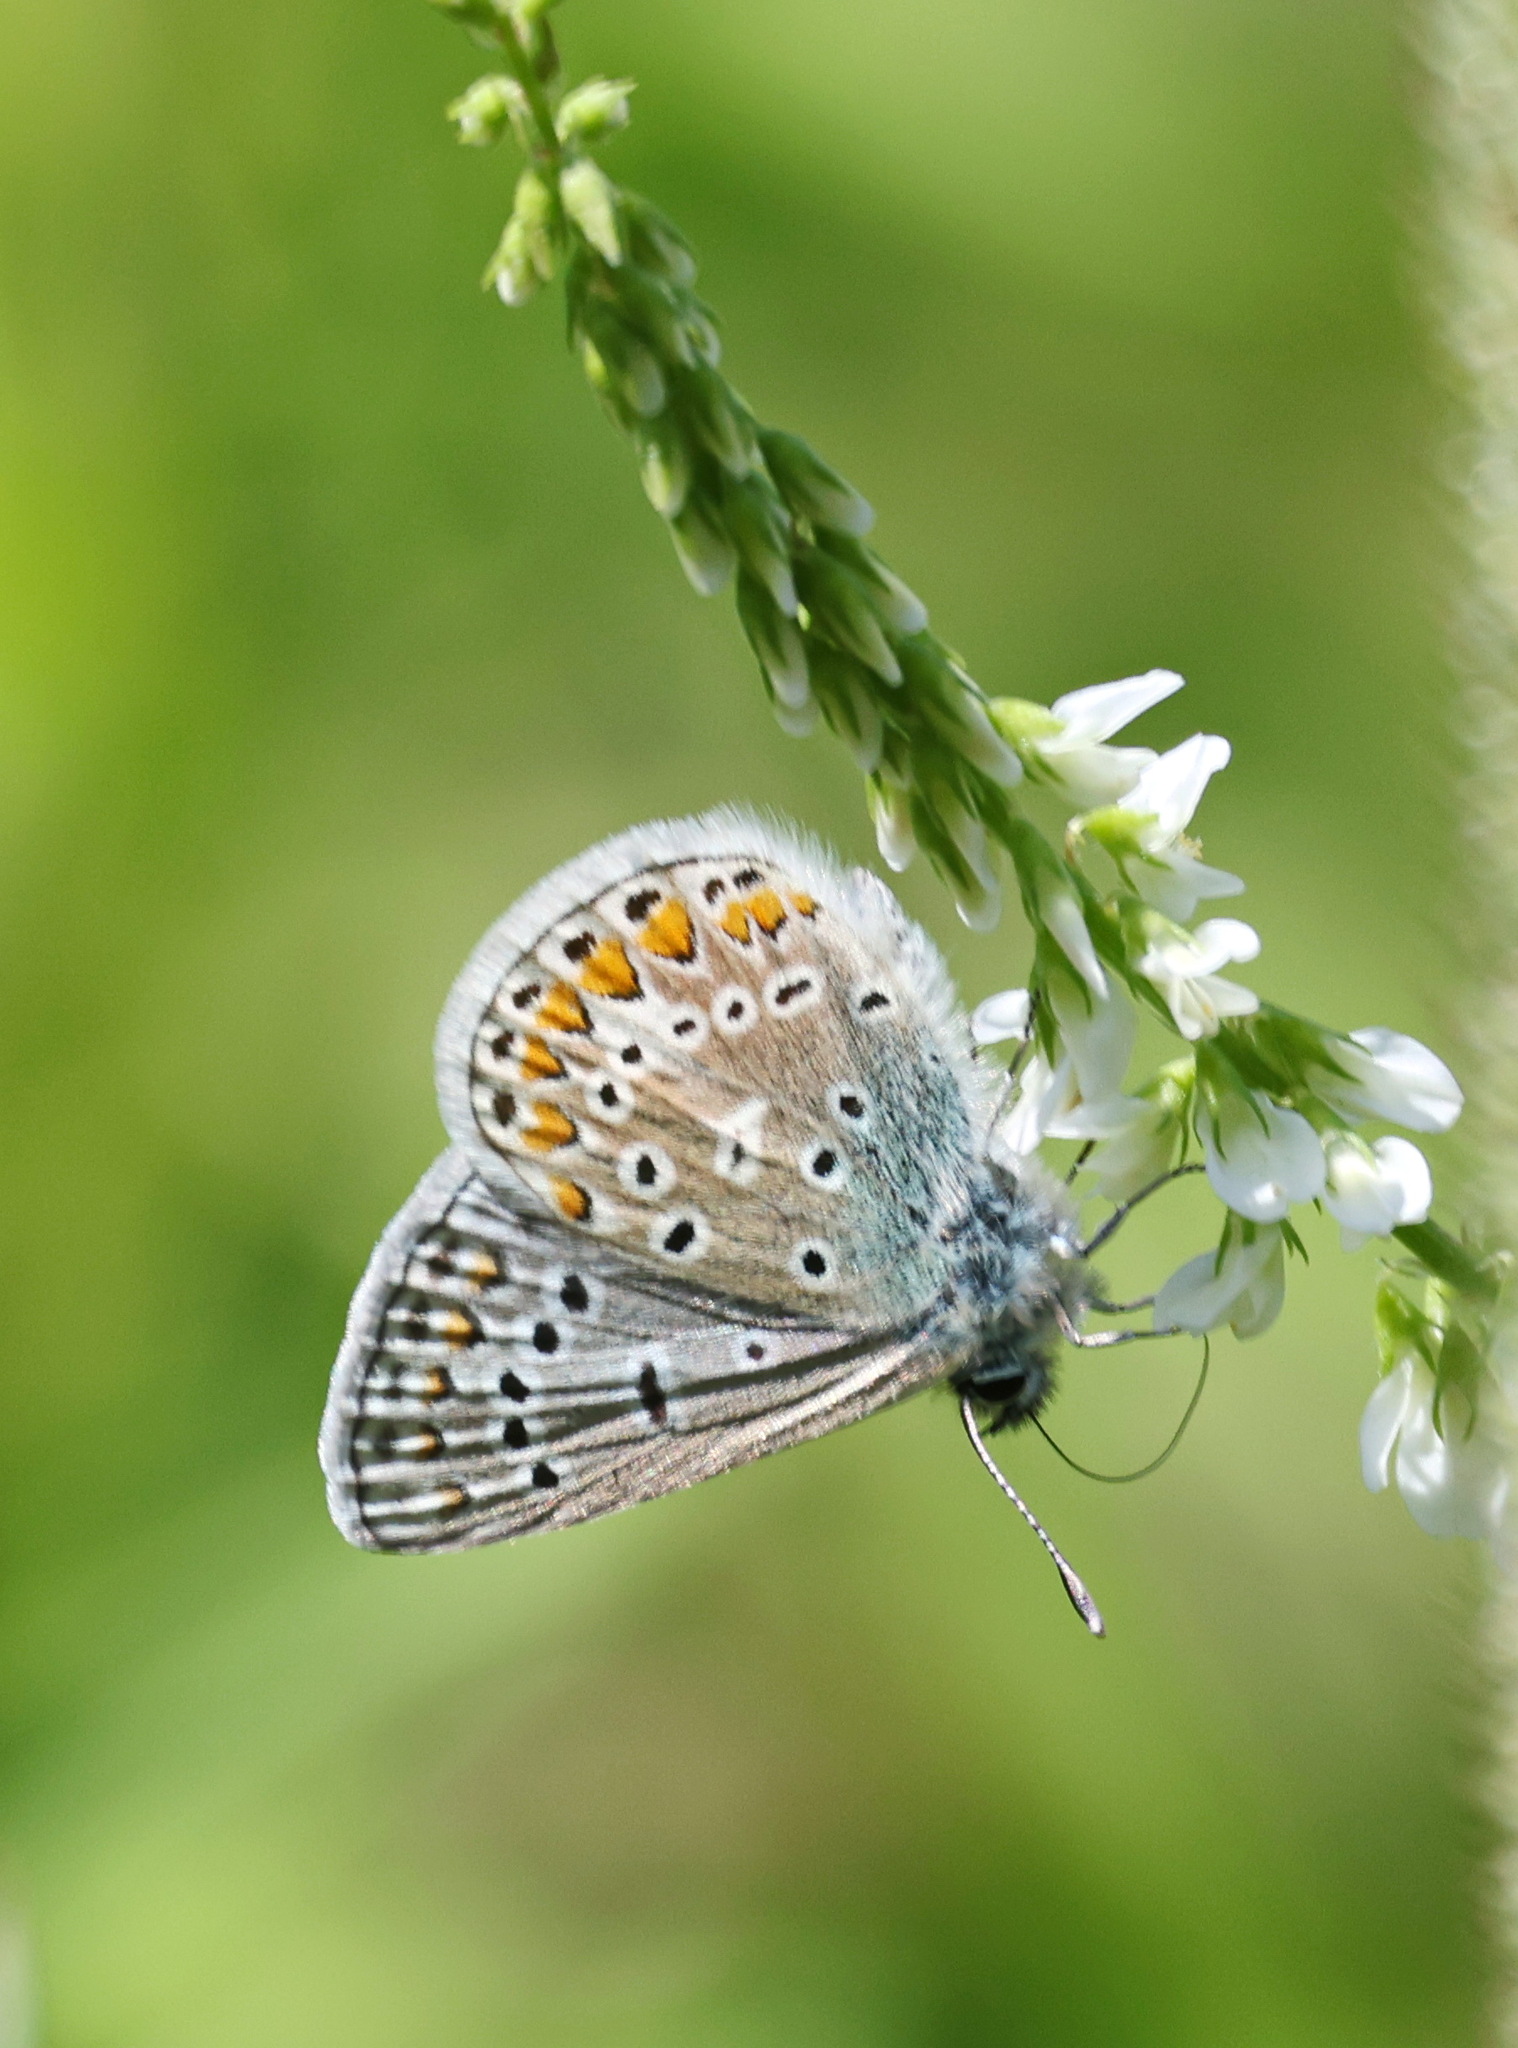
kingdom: Animalia
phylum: Arthropoda
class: Insecta
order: Lepidoptera
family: Lycaenidae
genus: Polyommatus
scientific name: Polyommatus icarus
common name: Common blue
